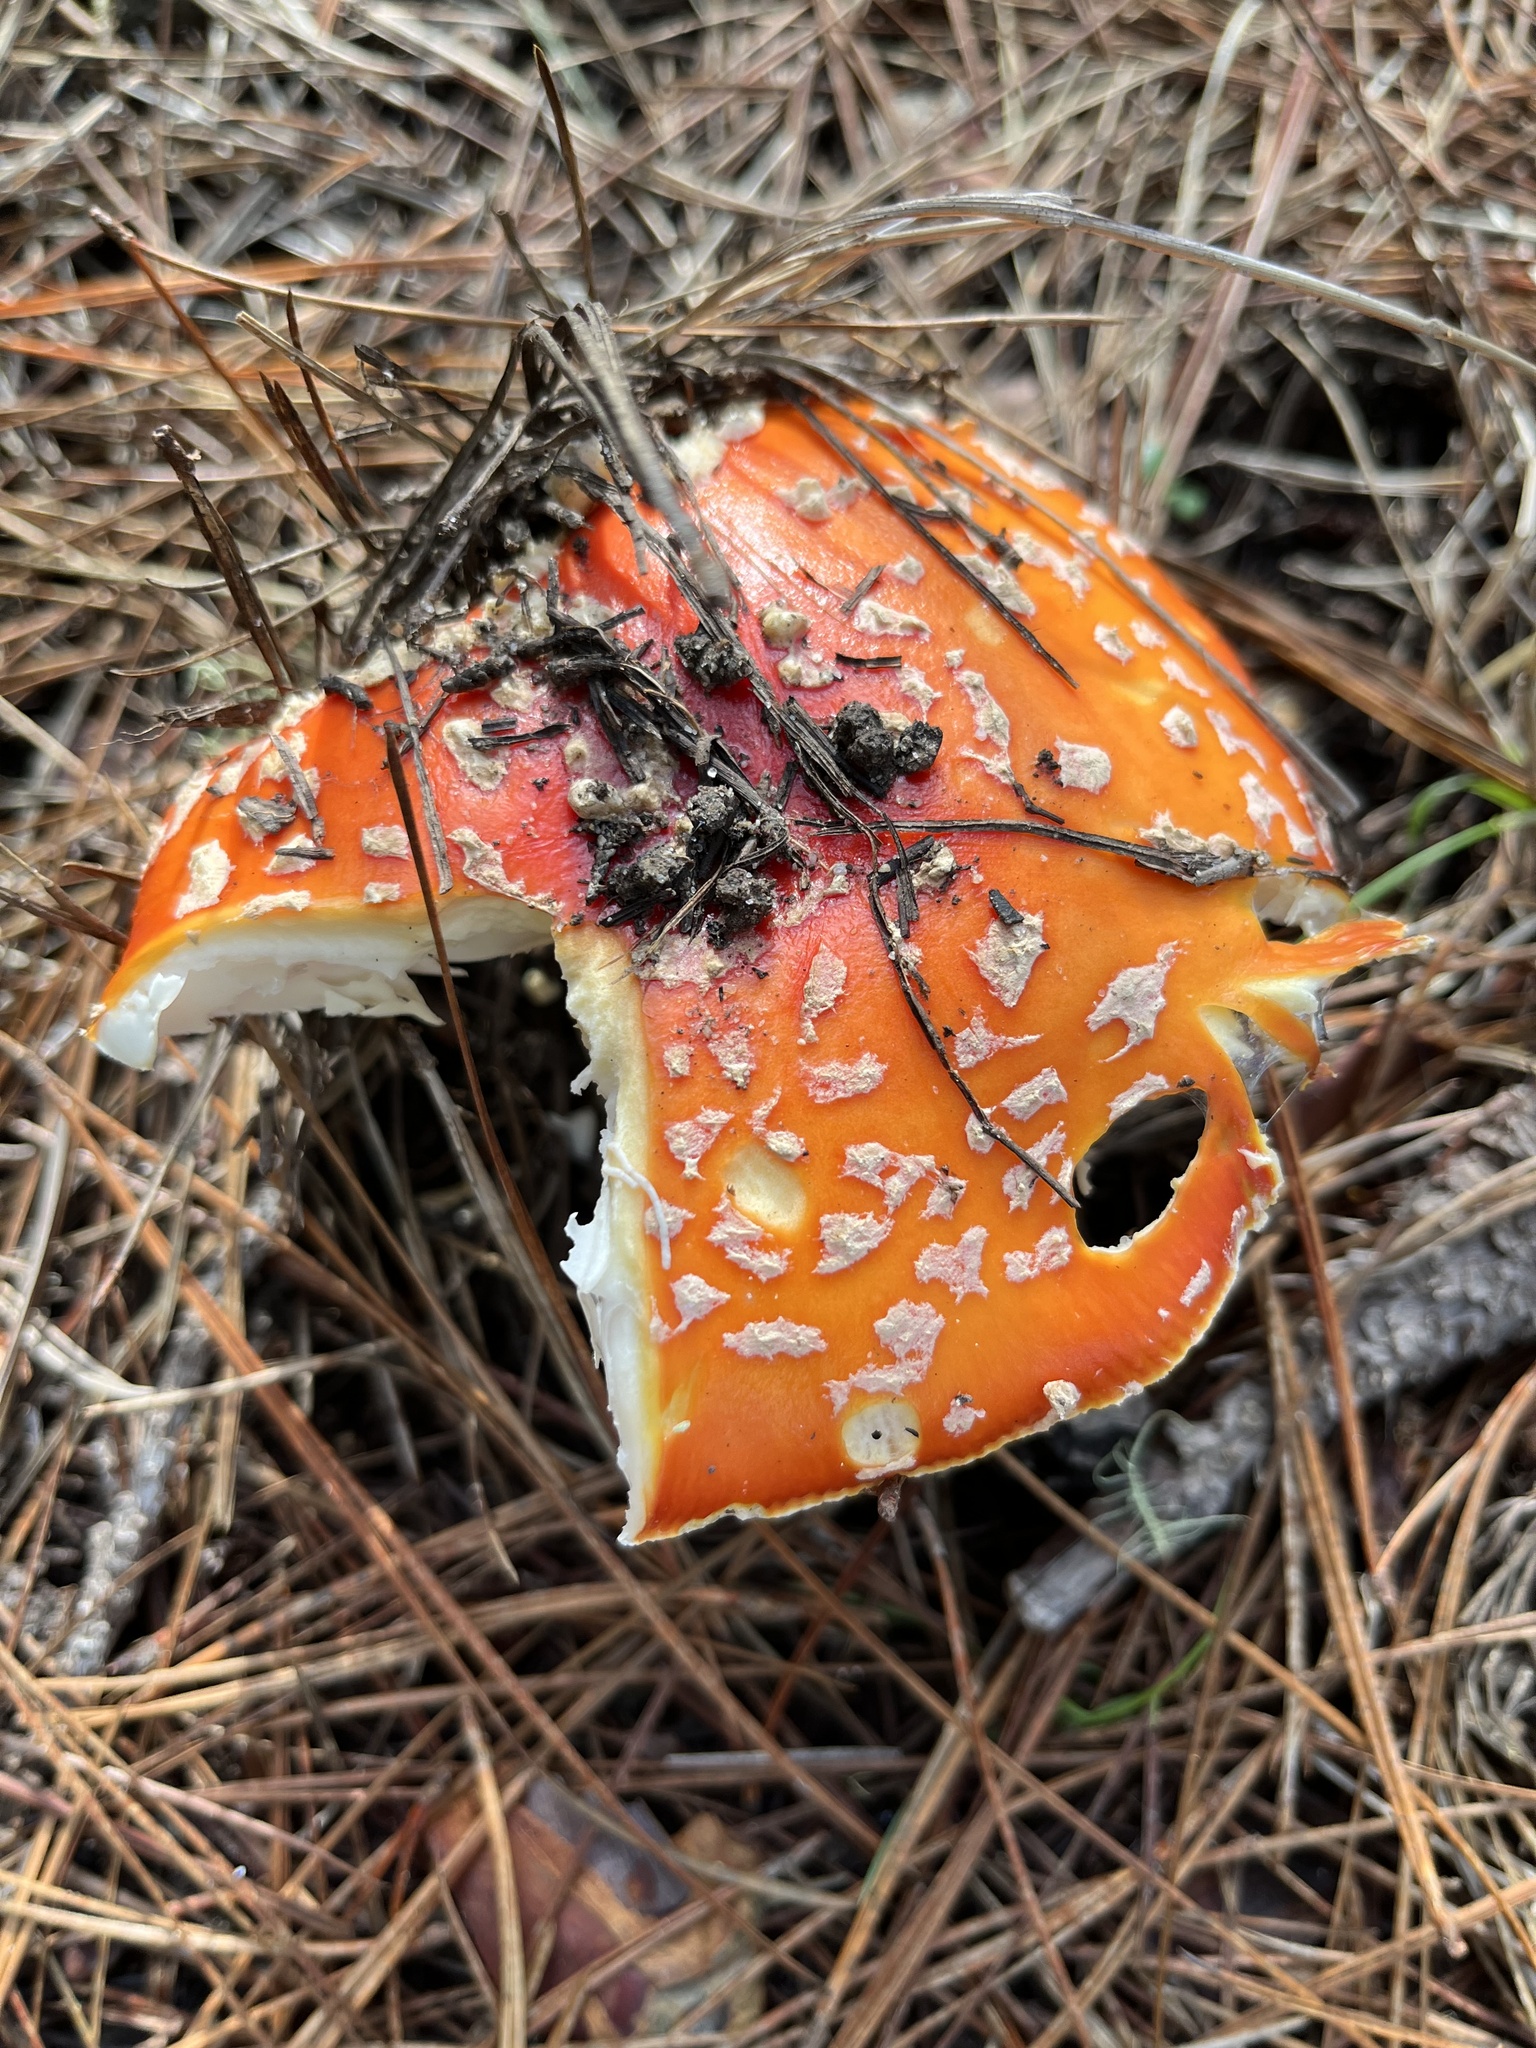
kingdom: Fungi
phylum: Basidiomycota
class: Agaricomycetes
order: Agaricales
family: Amanitaceae
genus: Amanita
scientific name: Amanita muscaria
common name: Fly agaric
